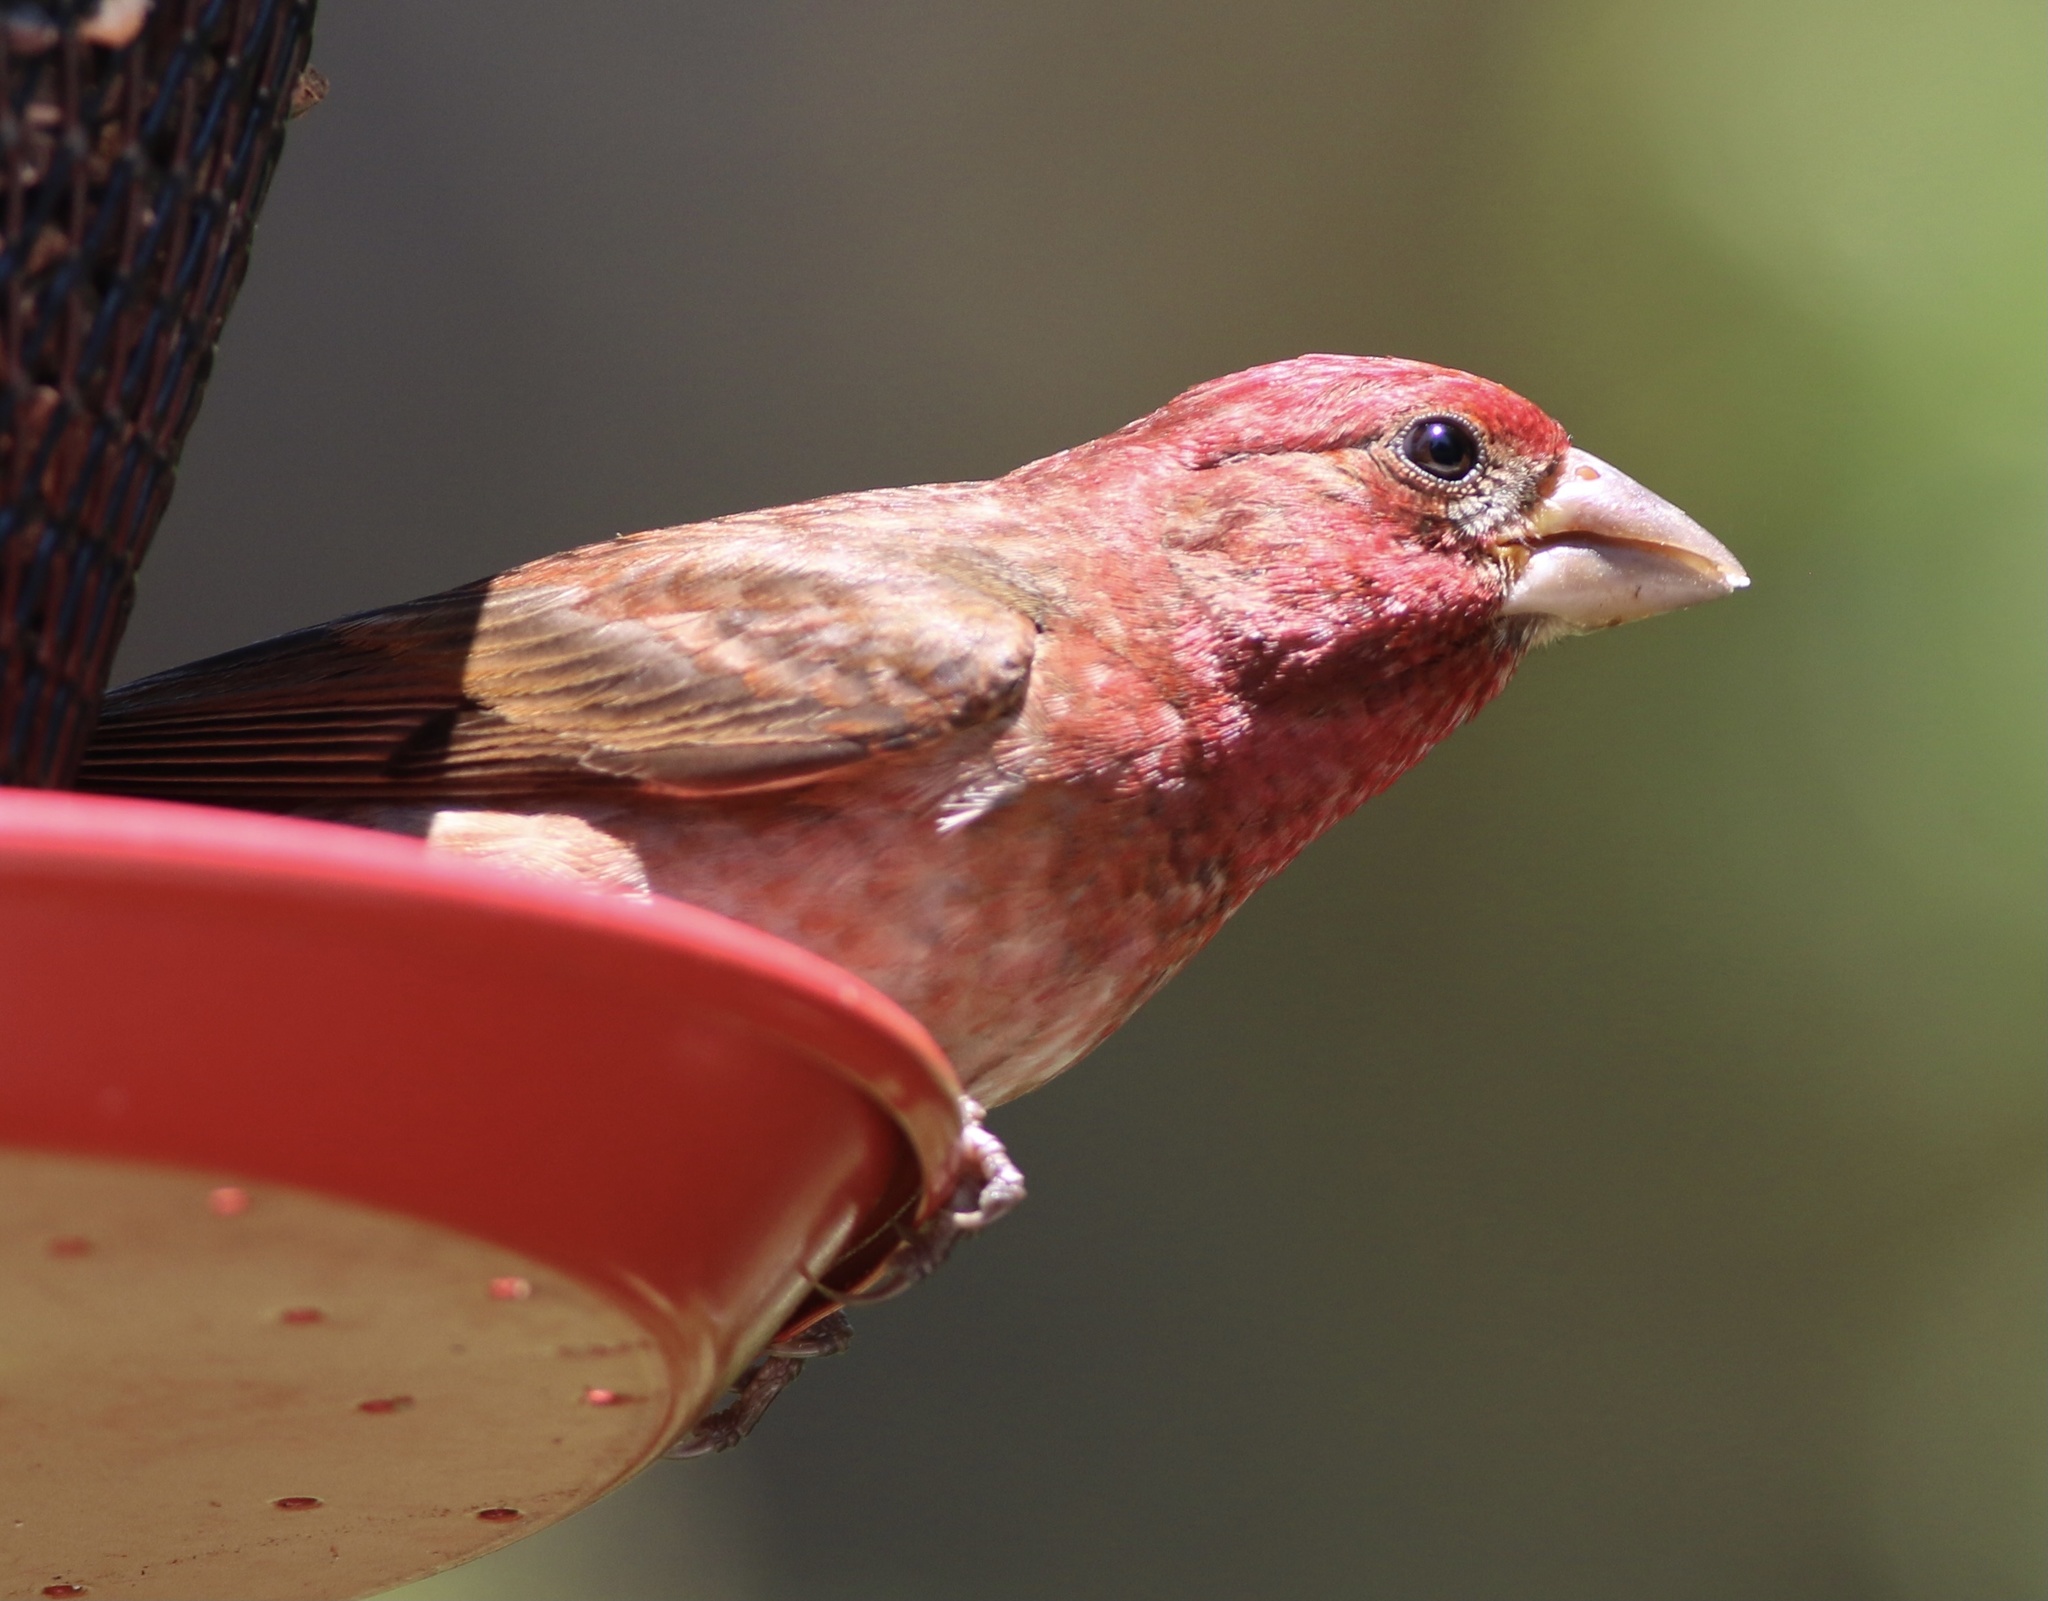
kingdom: Animalia
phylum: Chordata
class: Aves
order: Passeriformes
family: Fringillidae
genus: Haemorhous
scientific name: Haemorhous purpureus
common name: Purple finch
